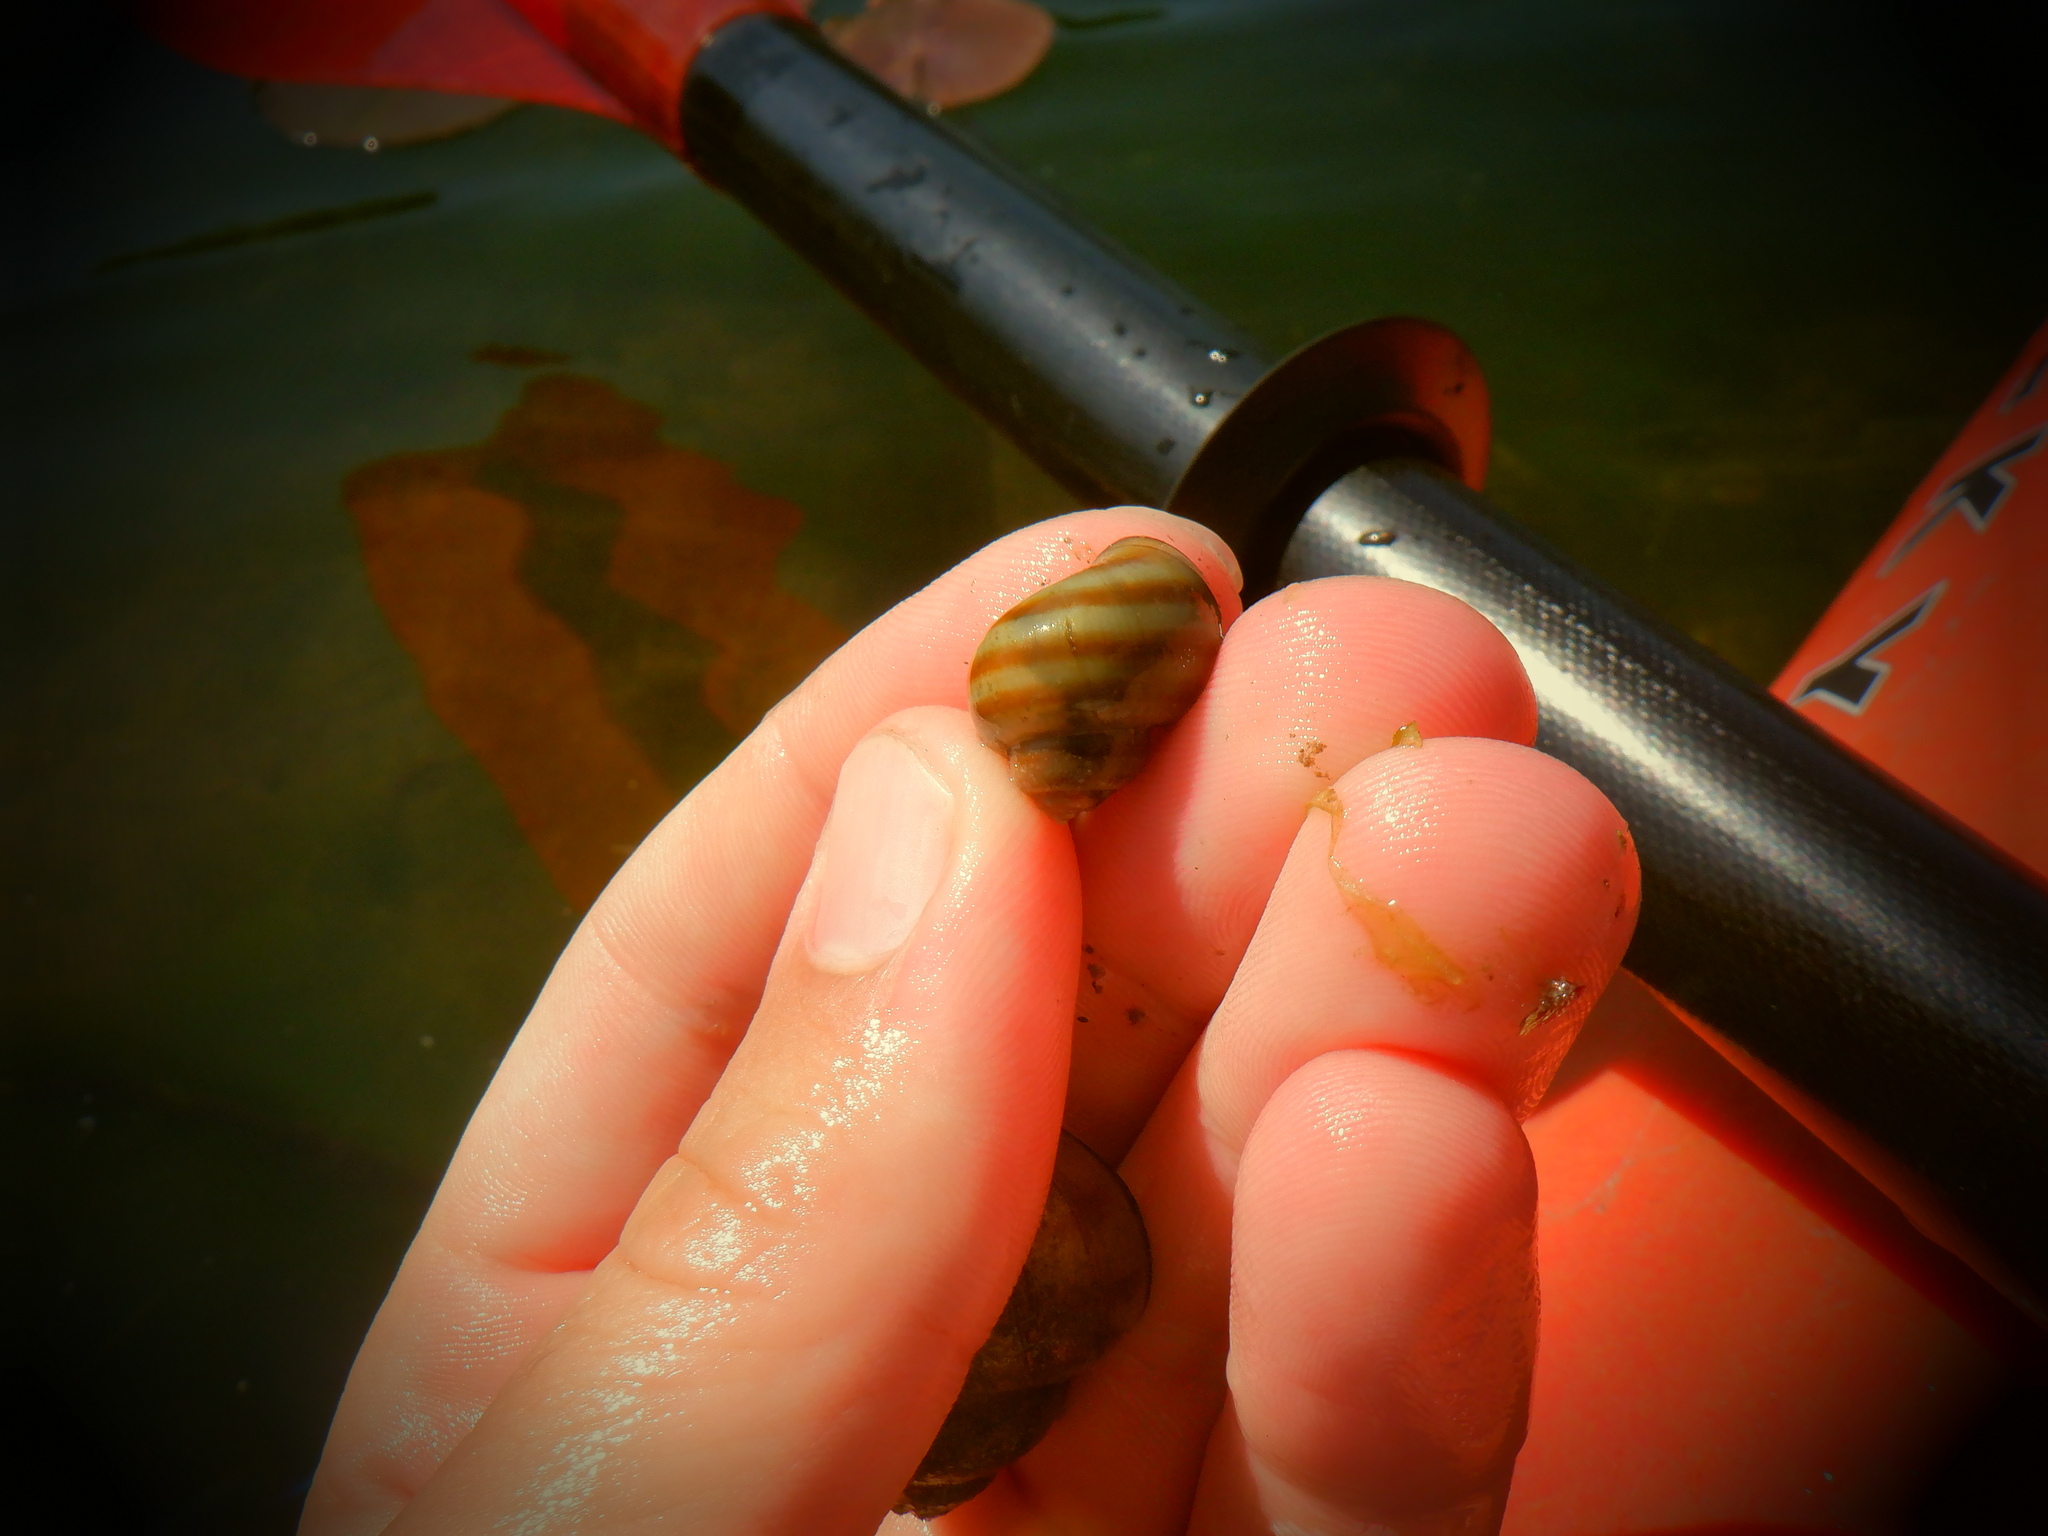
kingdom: Animalia
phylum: Mollusca
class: Gastropoda
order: Architaenioglossa
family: Viviparidae
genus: Callinina
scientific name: Callinina georgiana
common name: Banded mystery snail
